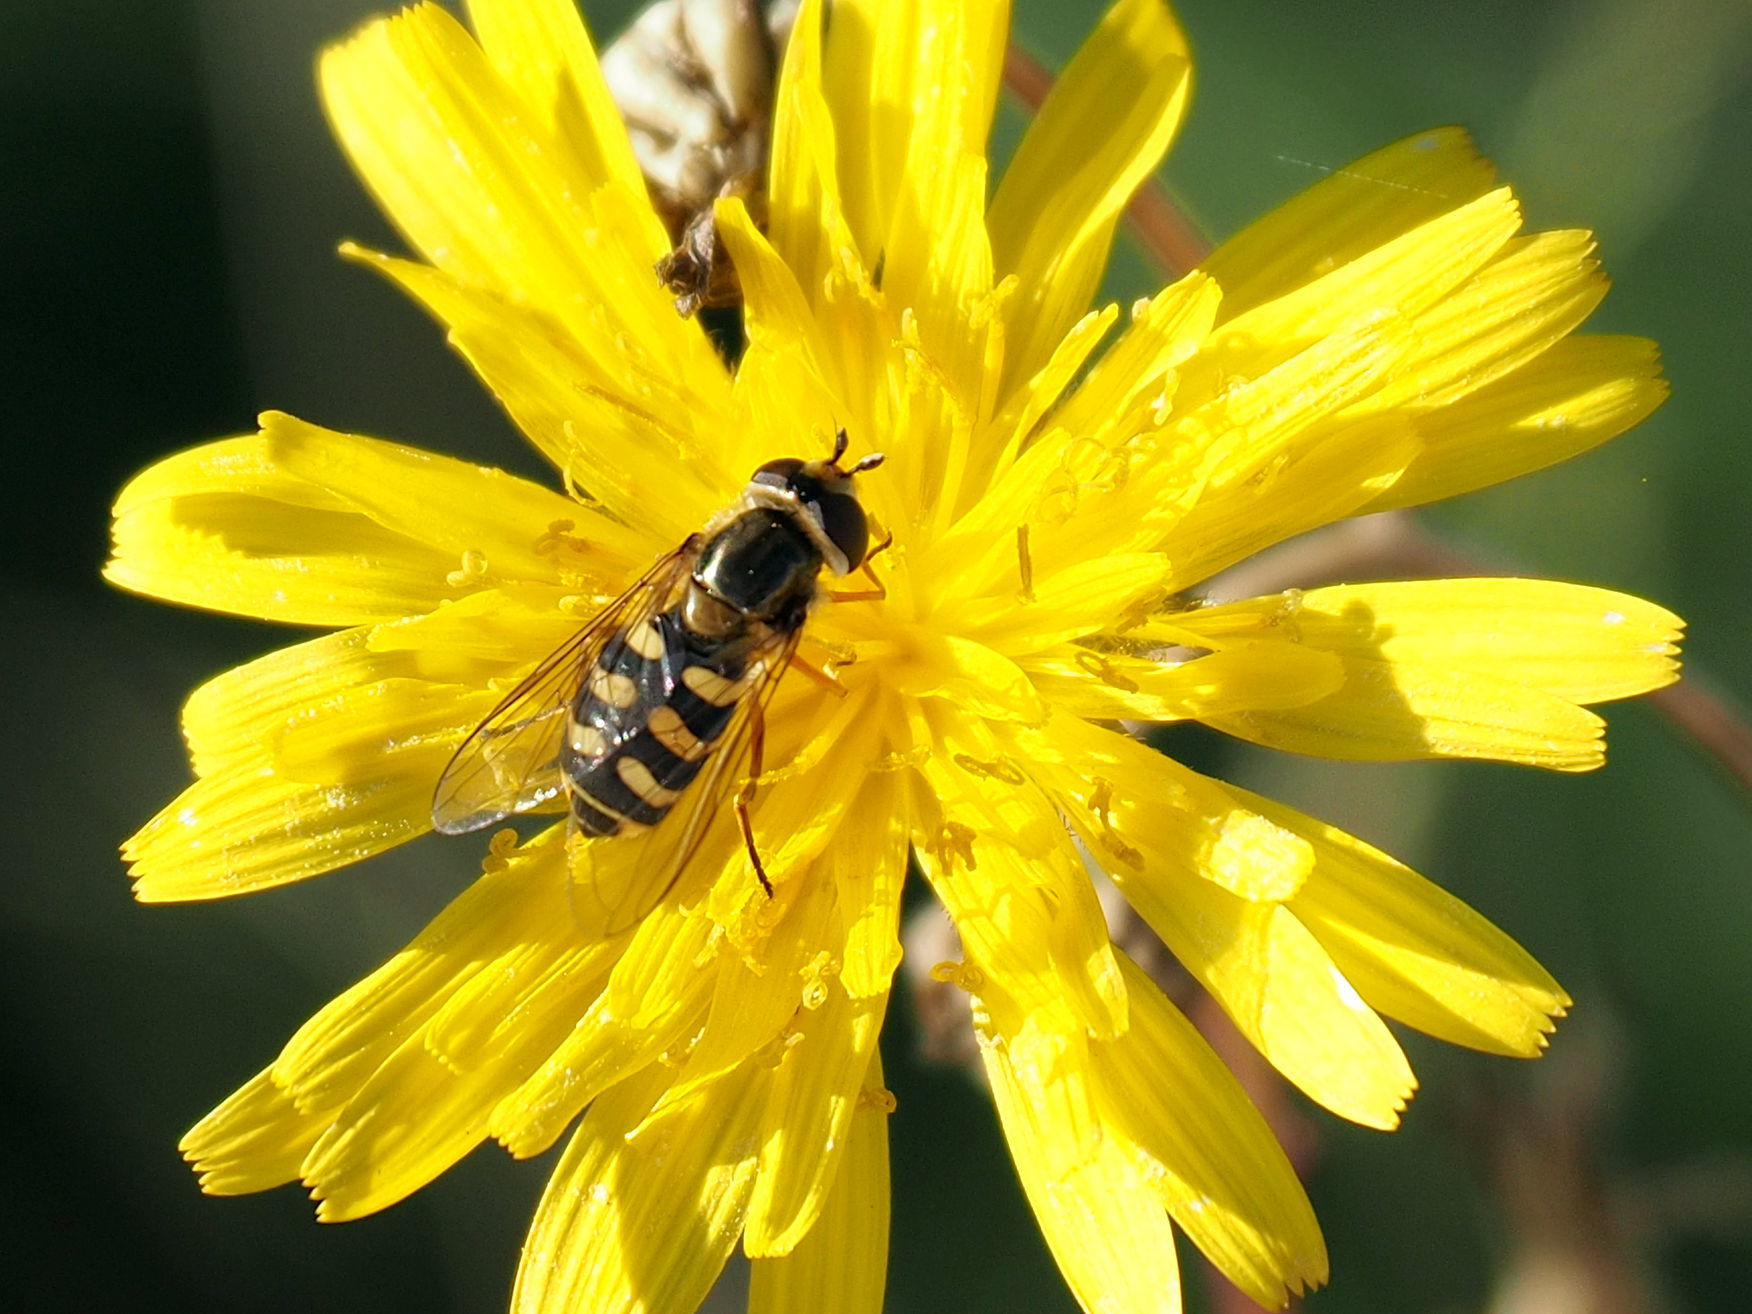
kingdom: Animalia
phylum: Arthropoda
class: Insecta
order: Diptera
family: Syrphidae
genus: Eupeodes
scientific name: Eupeodes corollae
